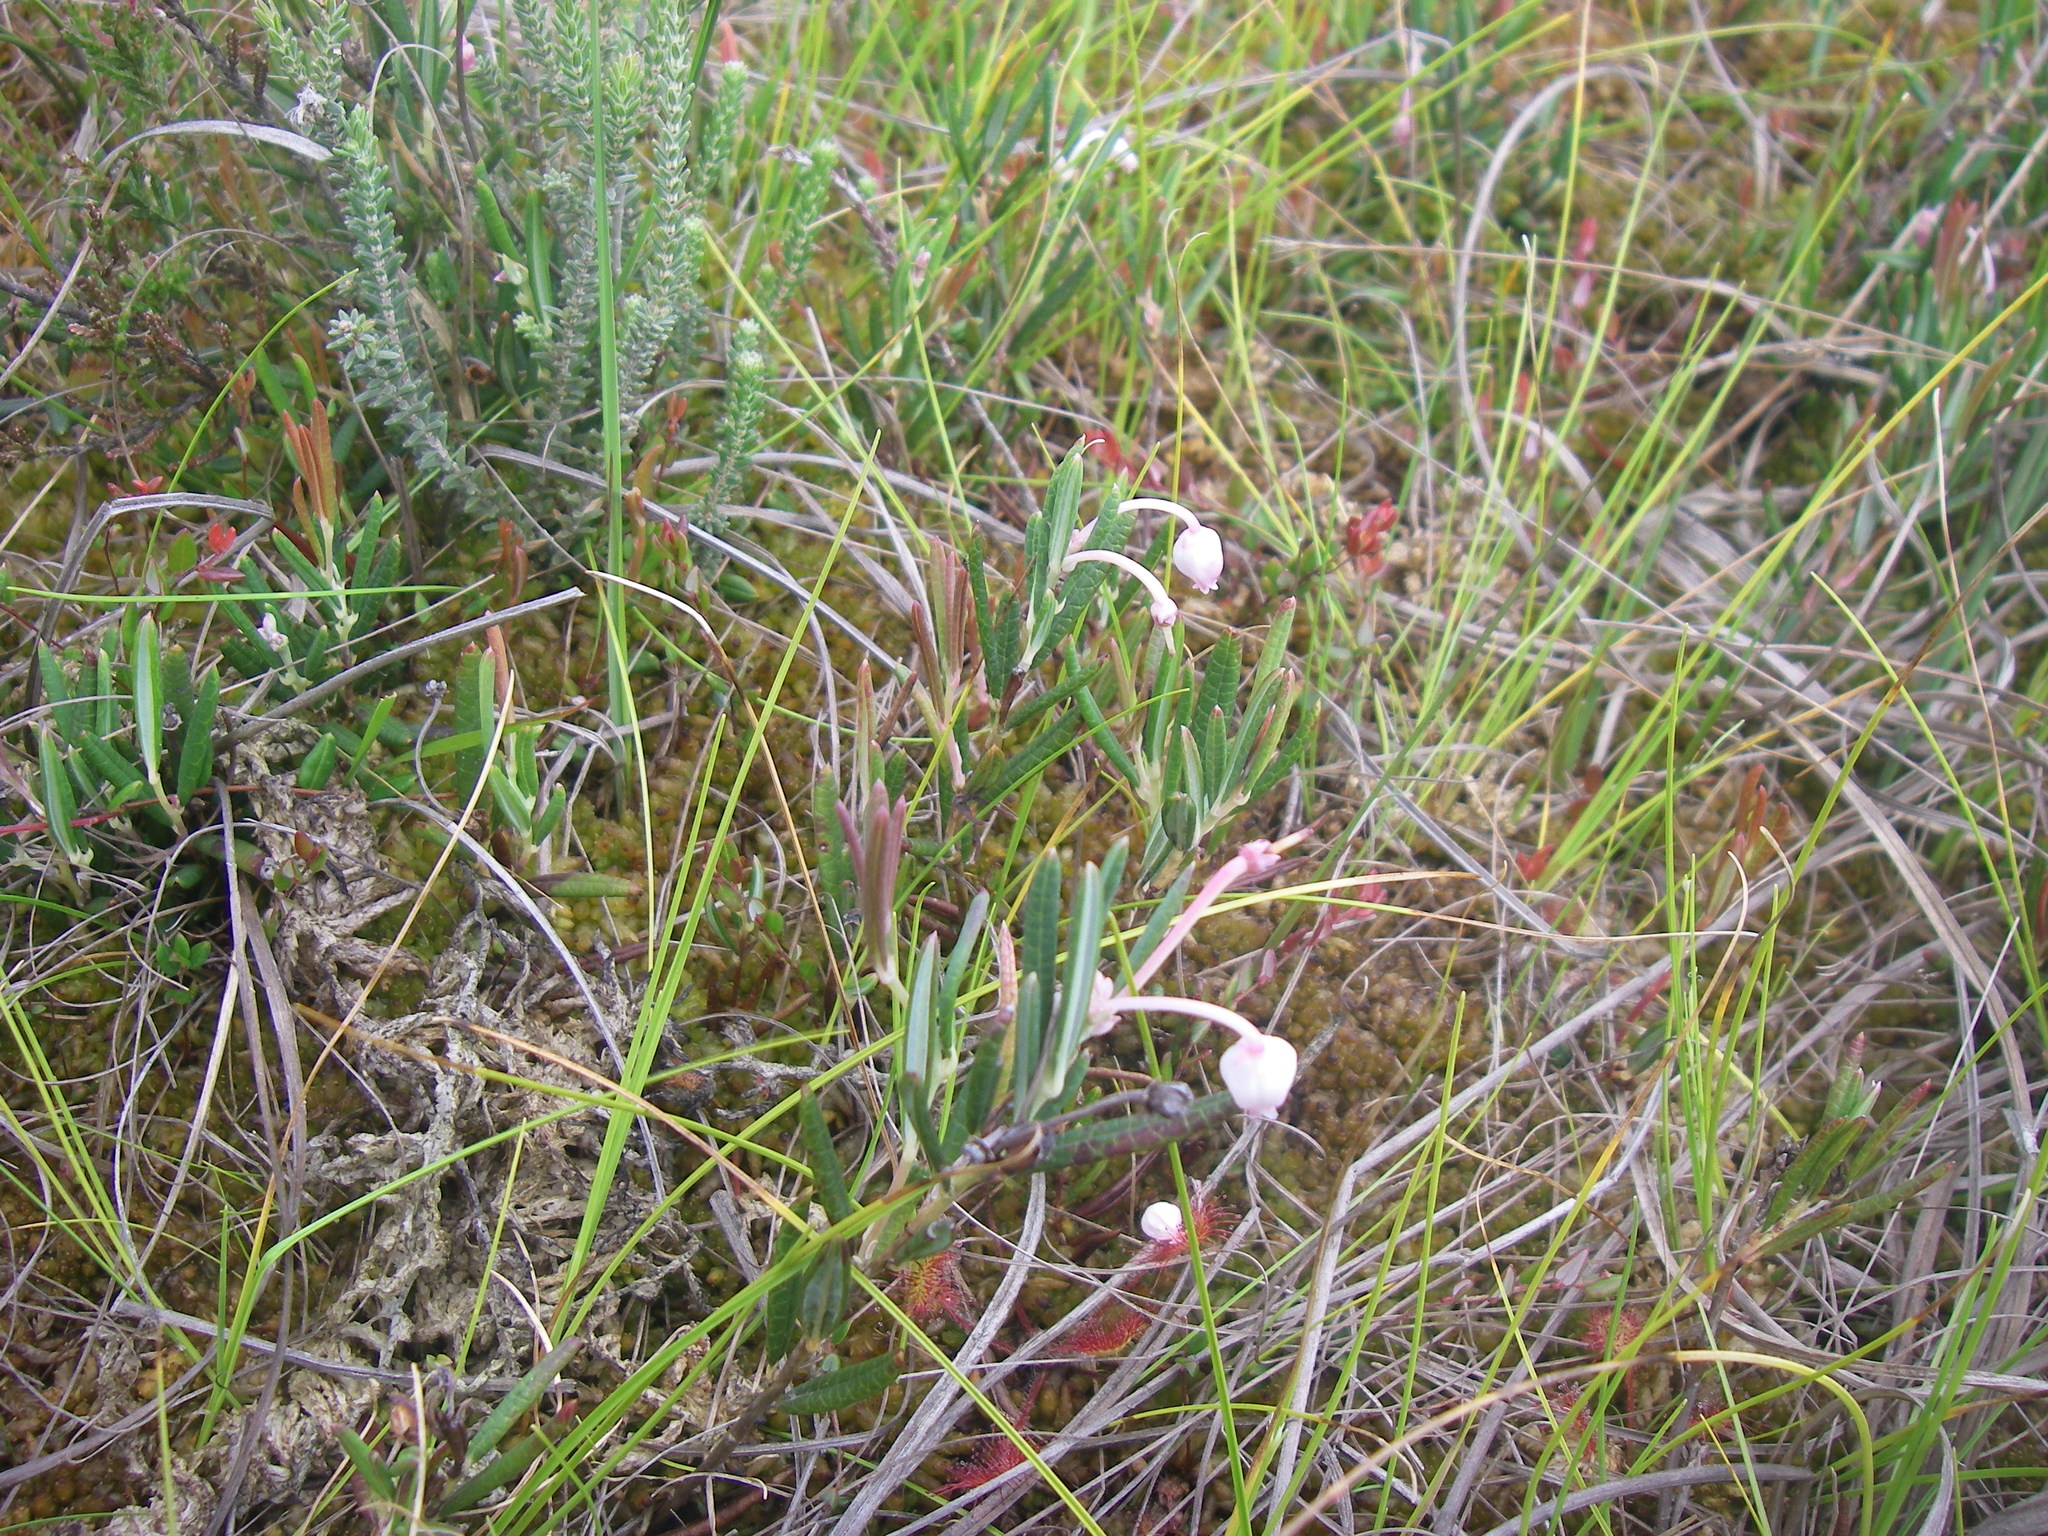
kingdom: Plantae
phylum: Tracheophyta
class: Magnoliopsida
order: Ericales
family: Ericaceae
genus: Andromeda
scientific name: Andromeda polifolia
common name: Bog-rosemary
